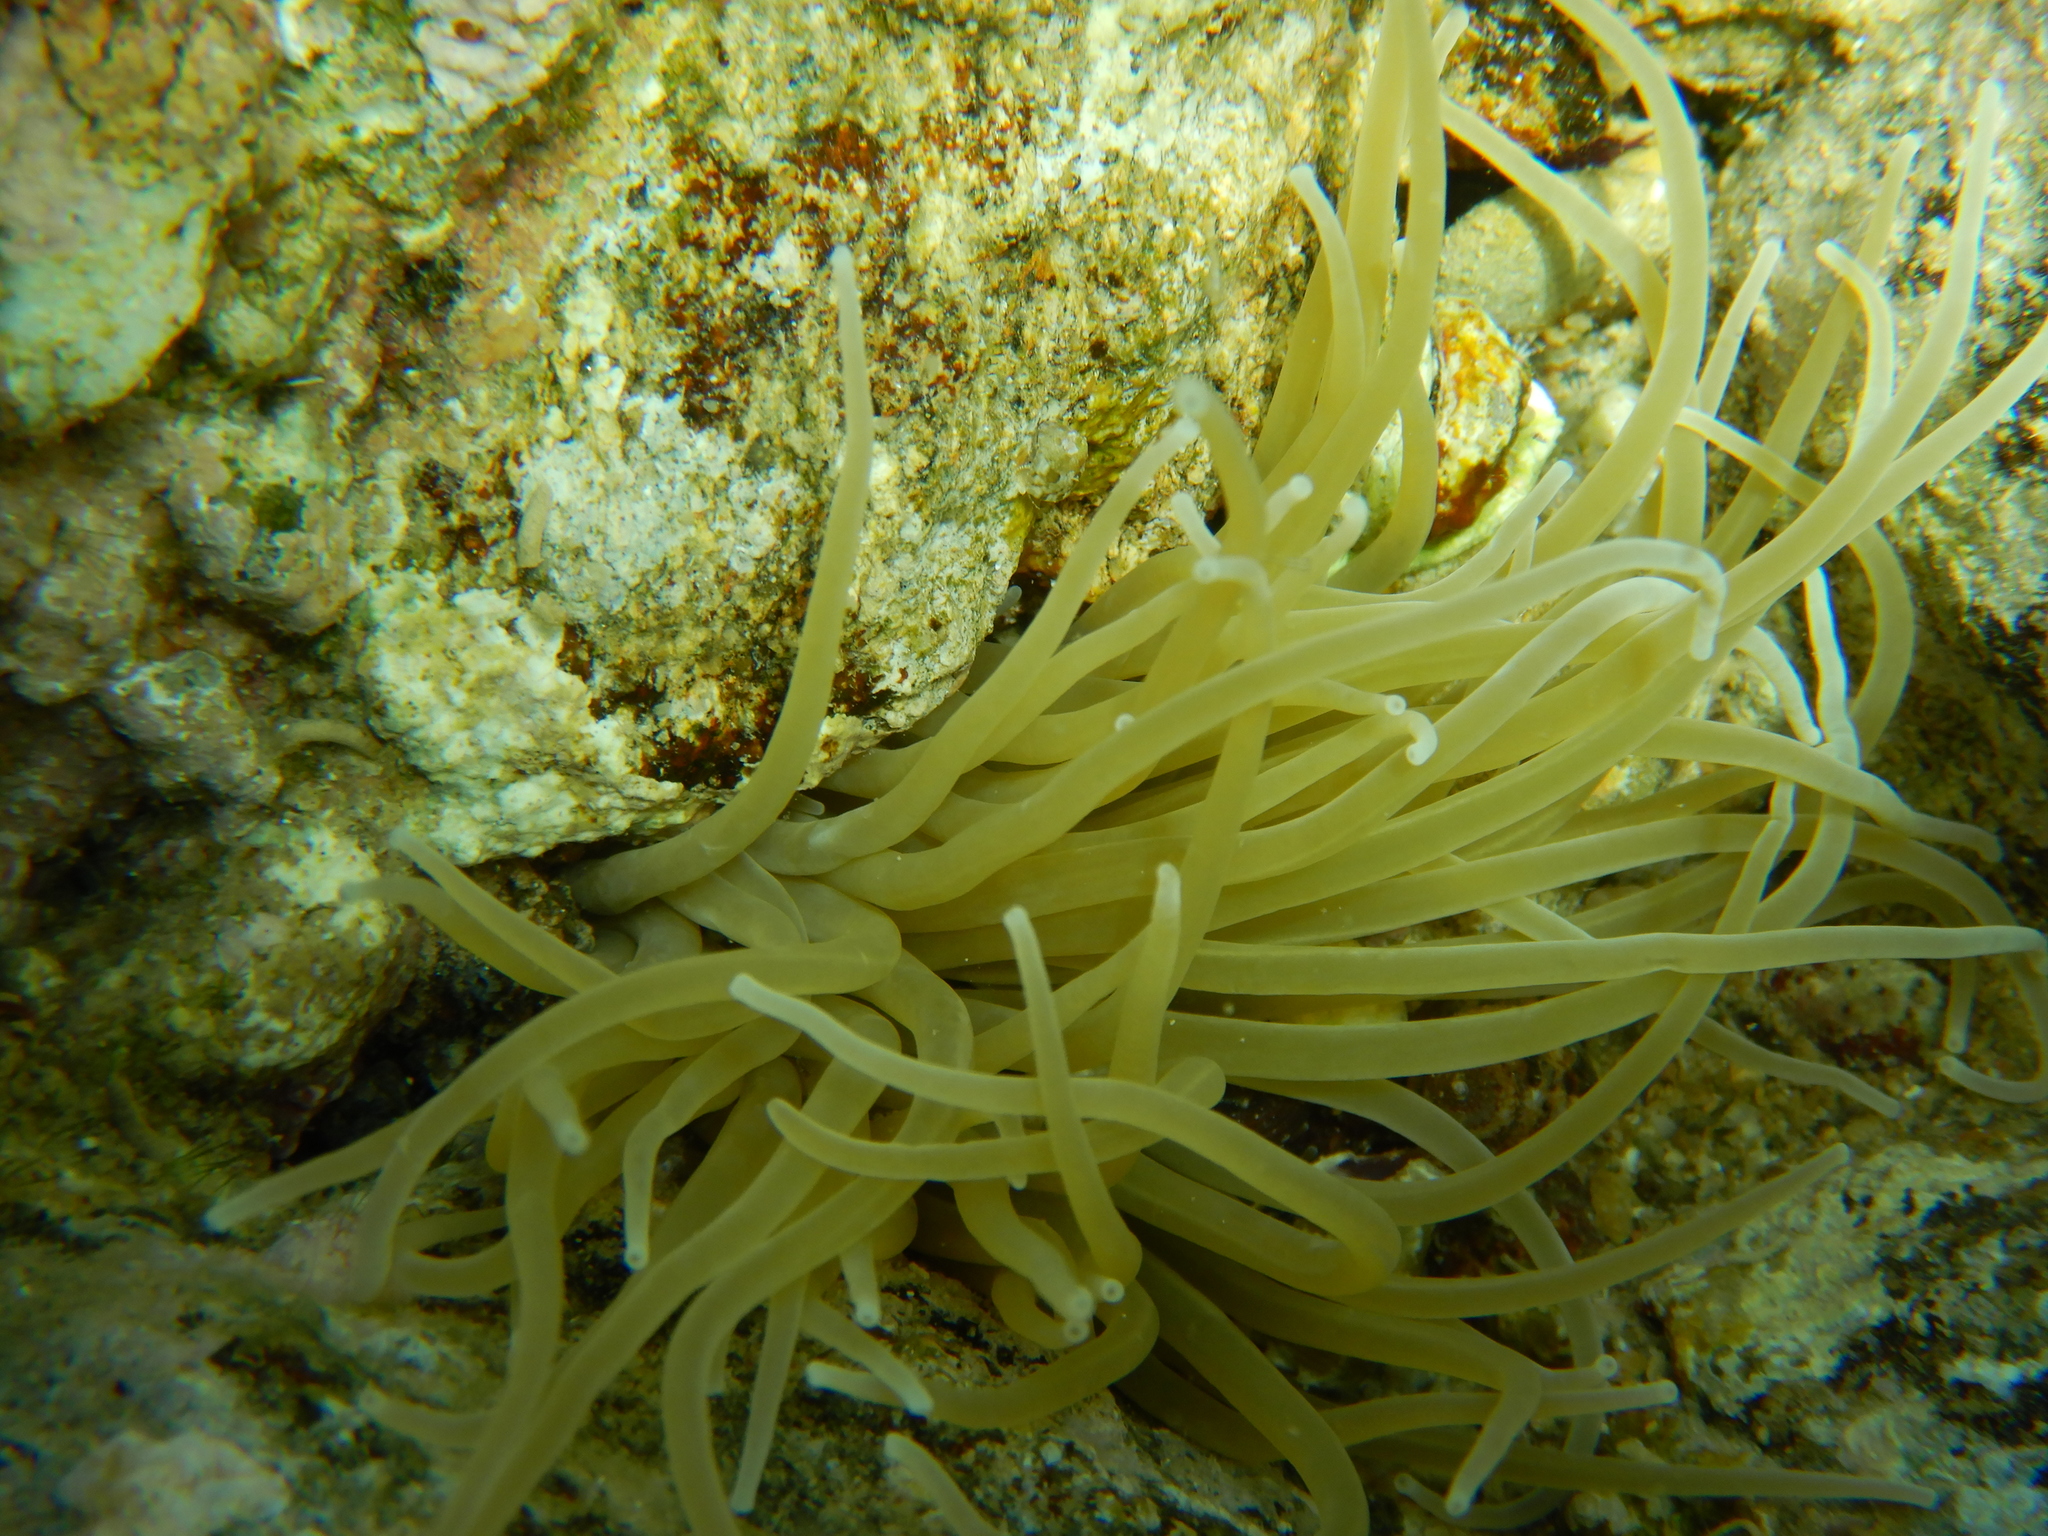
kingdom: Animalia
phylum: Cnidaria
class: Anthozoa
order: Actiniaria
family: Actiniidae
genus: Anemonia
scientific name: Anemonia viridis
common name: Snakelocks anemone
